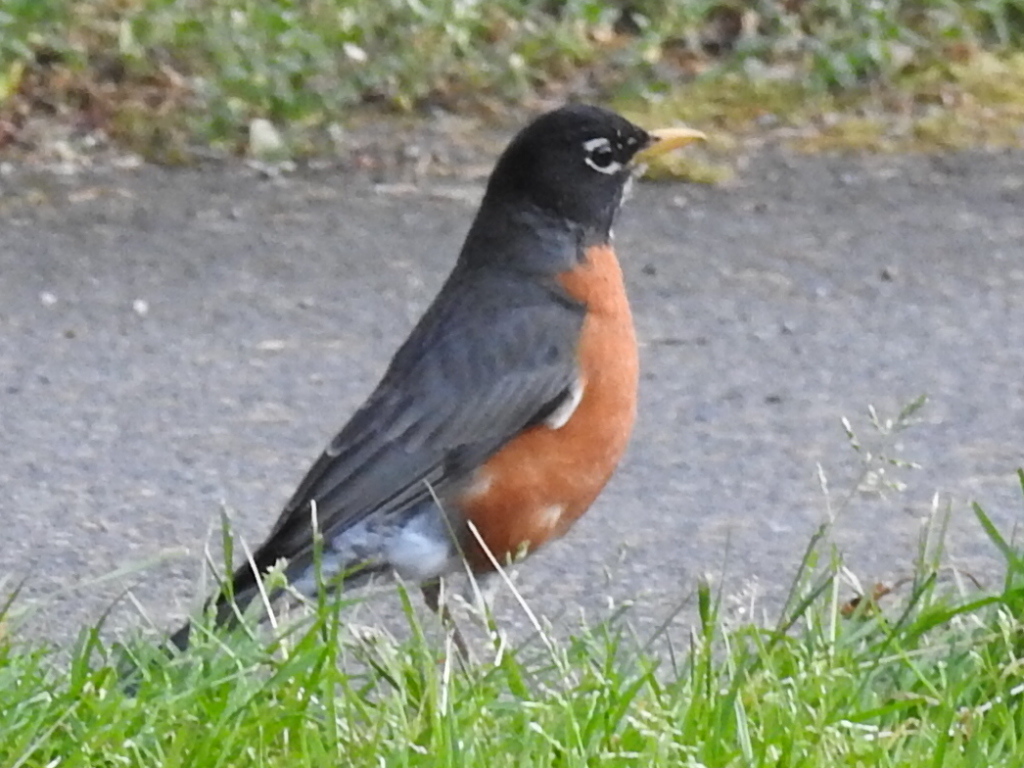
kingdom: Animalia
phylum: Chordata
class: Aves
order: Passeriformes
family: Turdidae
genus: Turdus
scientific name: Turdus migratorius
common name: American robin
